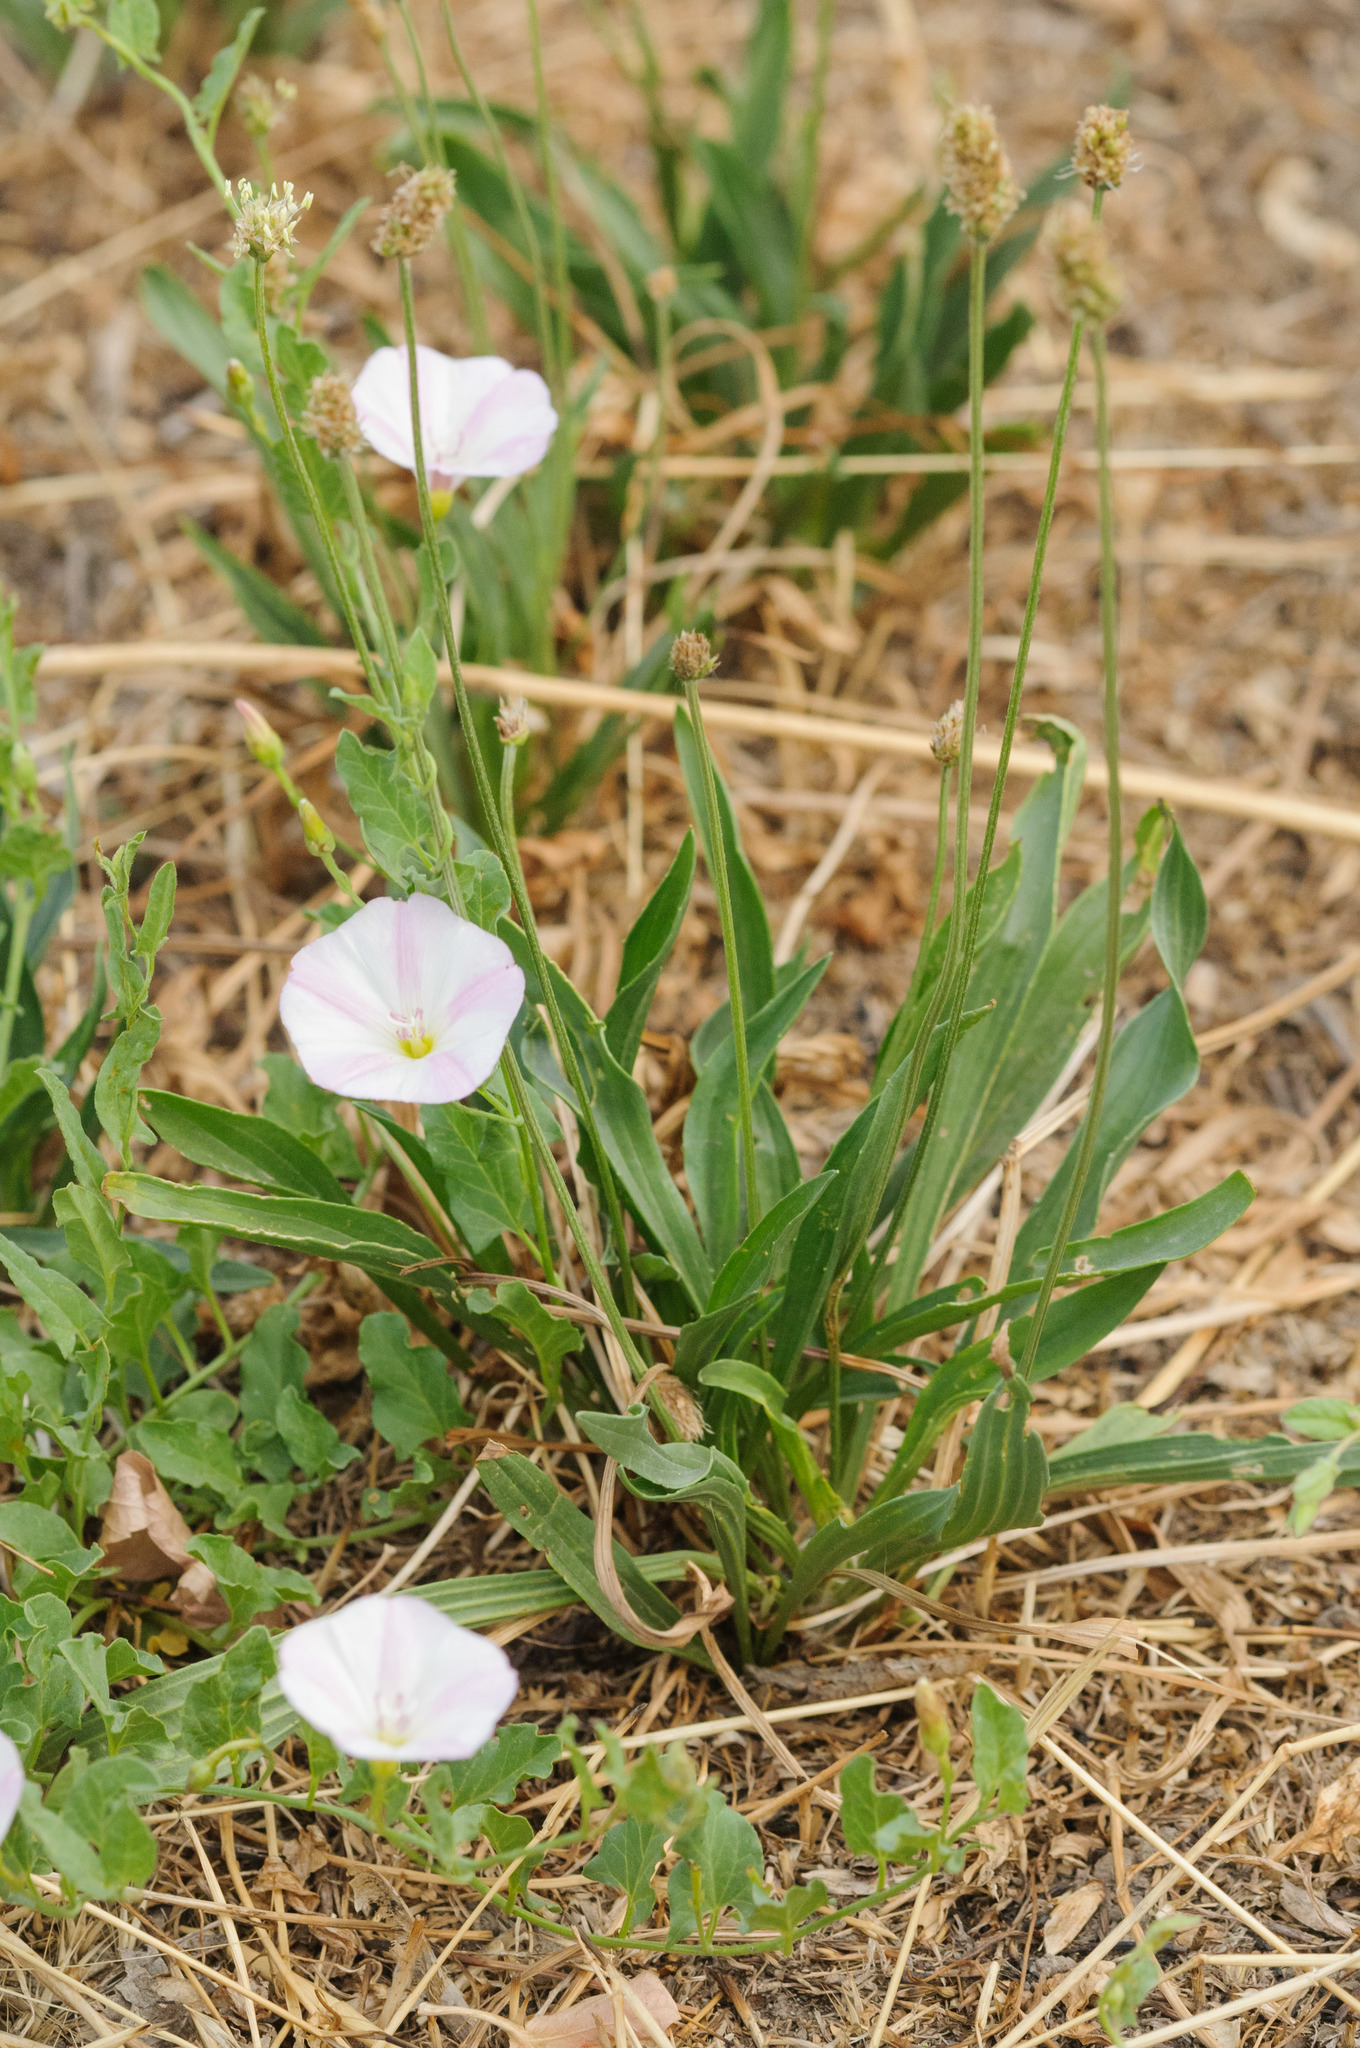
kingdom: Plantae
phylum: Tracheophyta
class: Magnoliopsida
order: Solanales
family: Convolvulaceae
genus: Convolvulus
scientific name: Convolvulus arvensis
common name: Field bindweed
